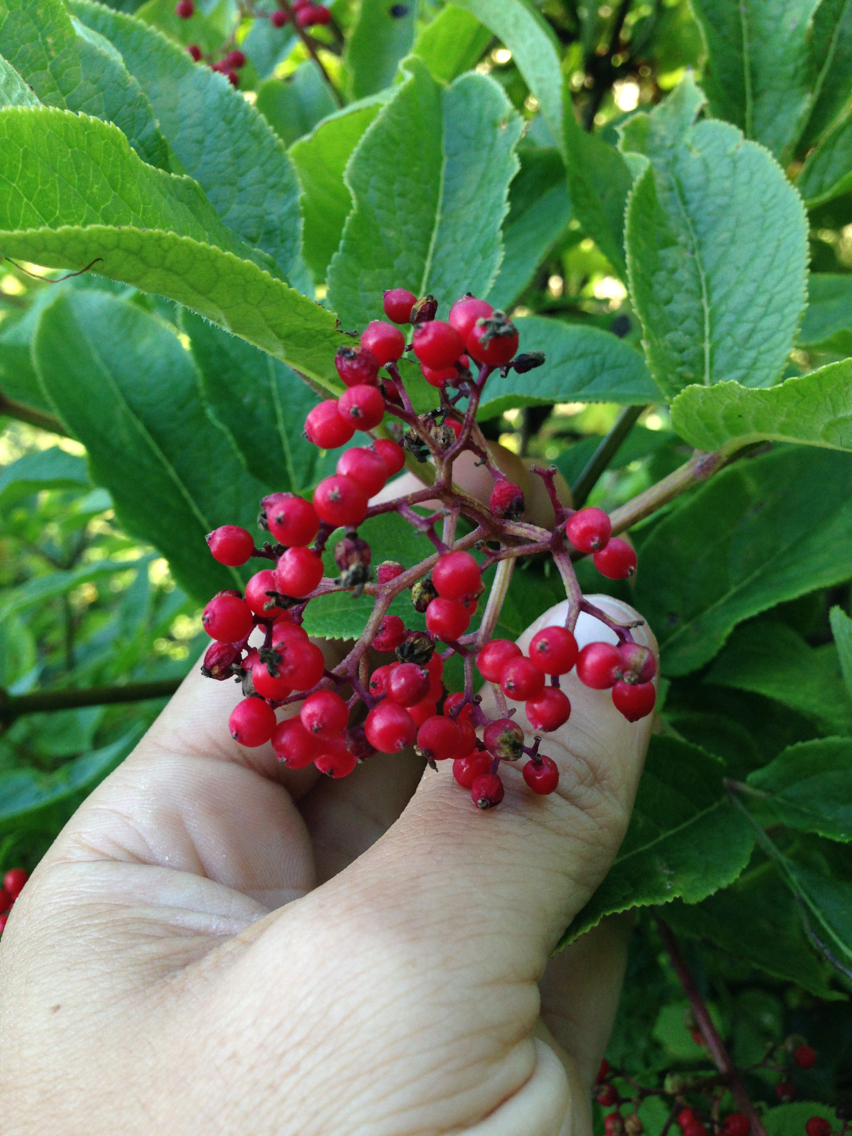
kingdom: Plantae
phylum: Tracheophyta
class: Magnoliopsida
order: Dipsacales
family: Viburnaceae
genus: Sambucus
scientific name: Sambucus racemosa
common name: Red-berried elder
